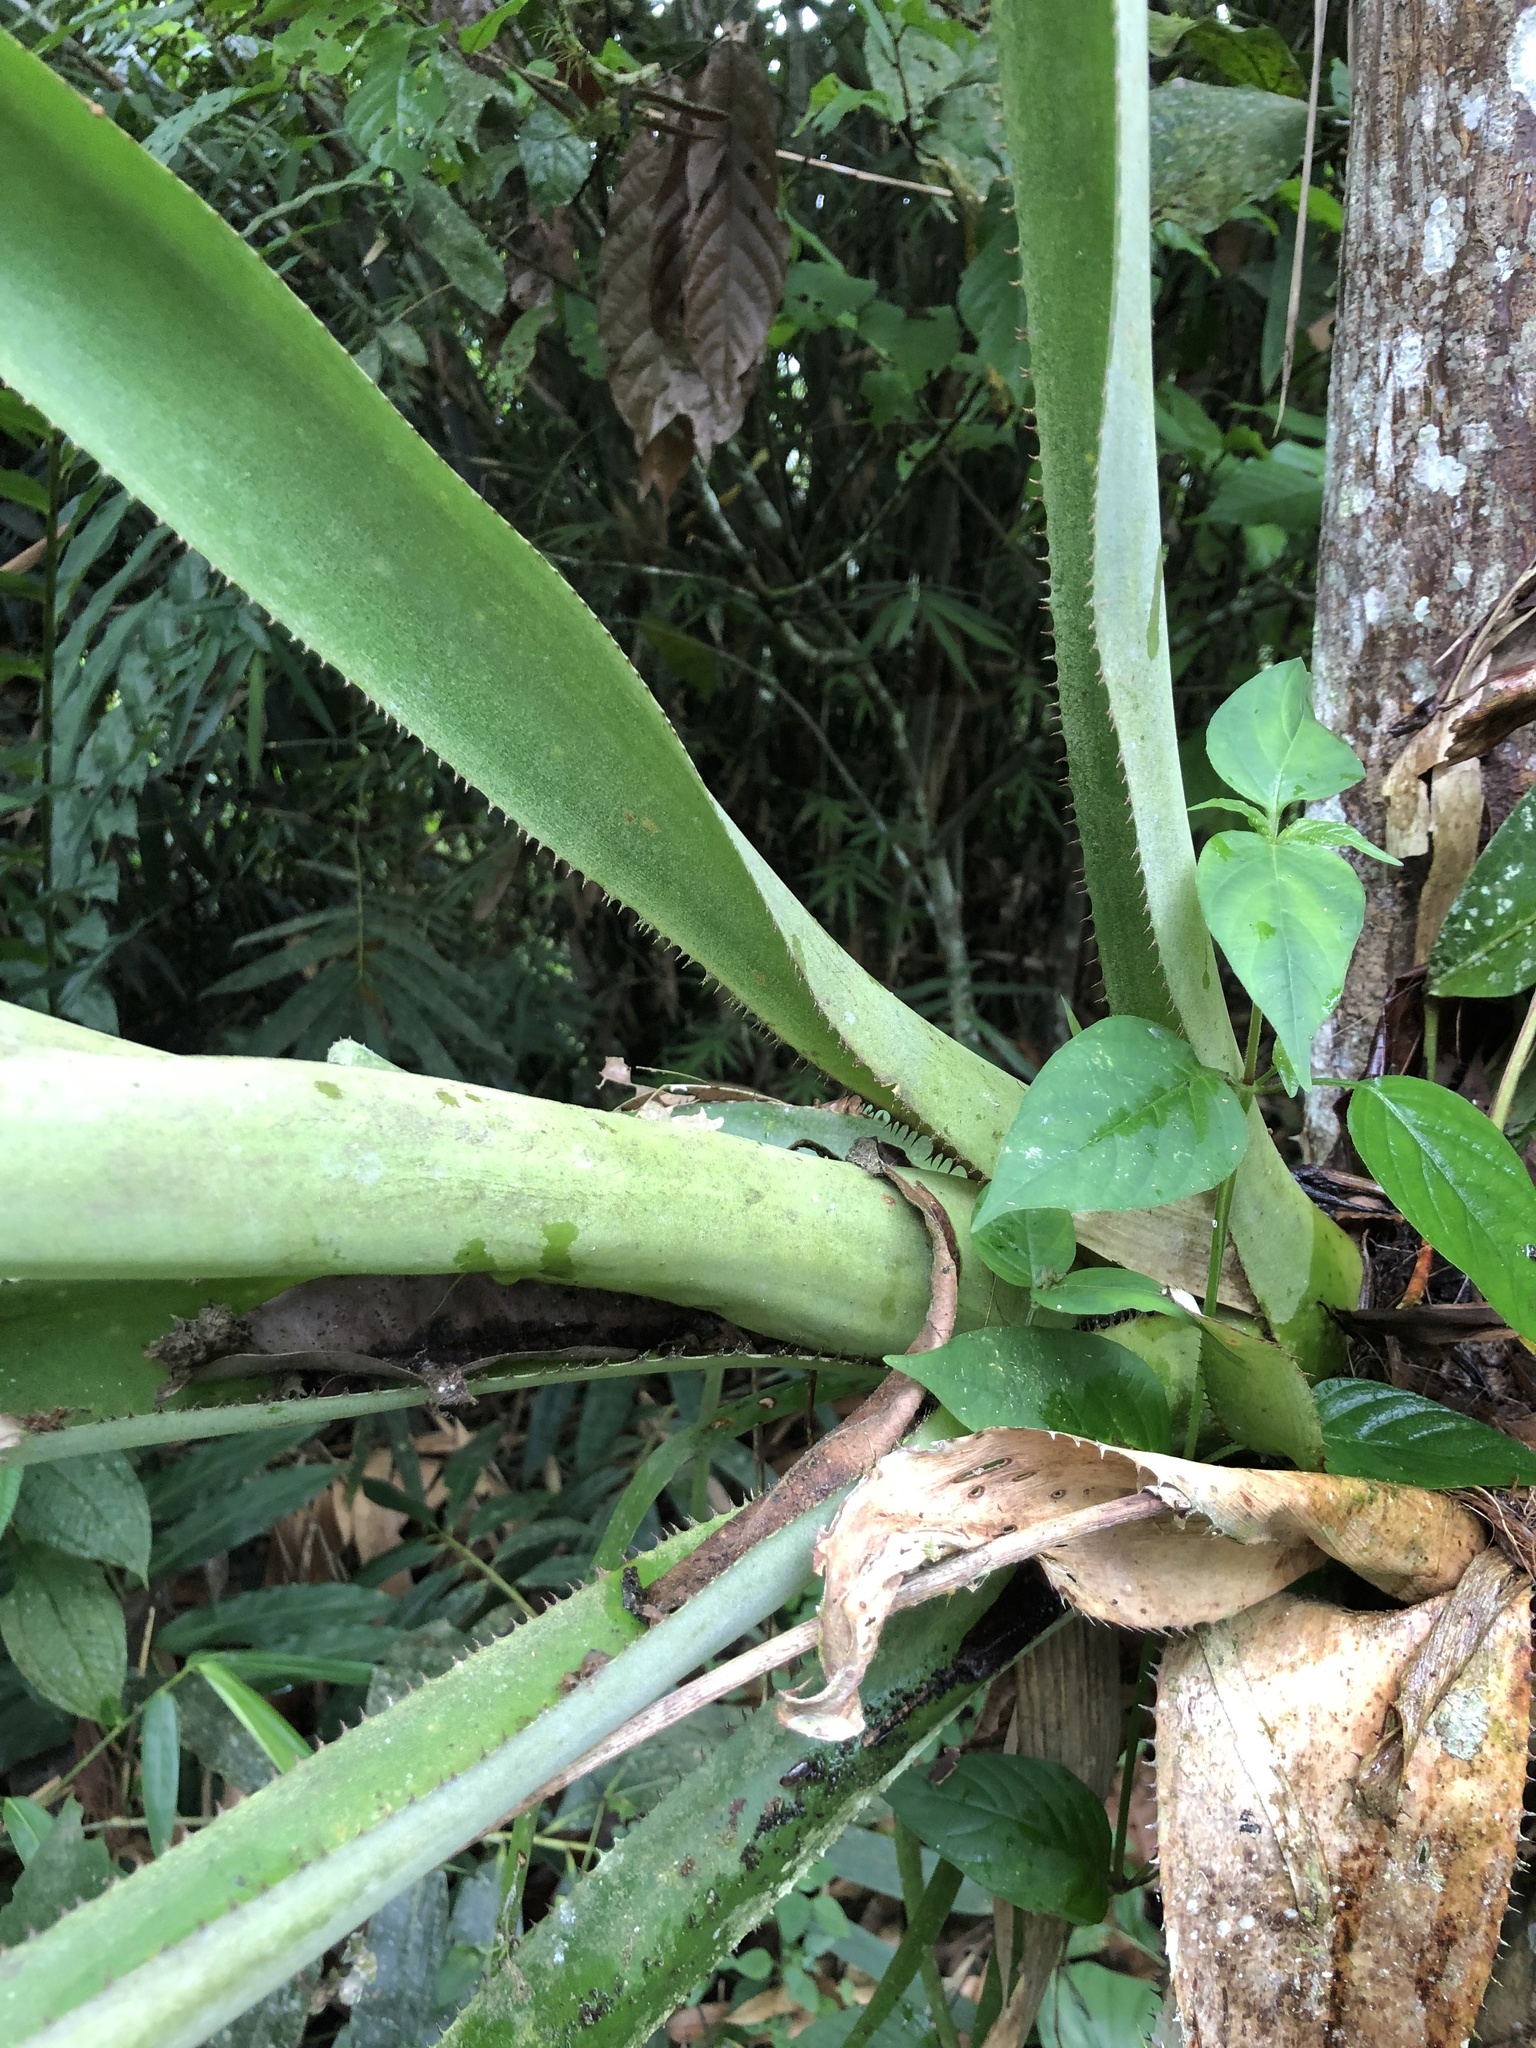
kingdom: Plantae
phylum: Tracheophyta
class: Liliopsida
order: Poales
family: Bromeliaceae
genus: Aechmea
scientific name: Aechmea angustifolia
